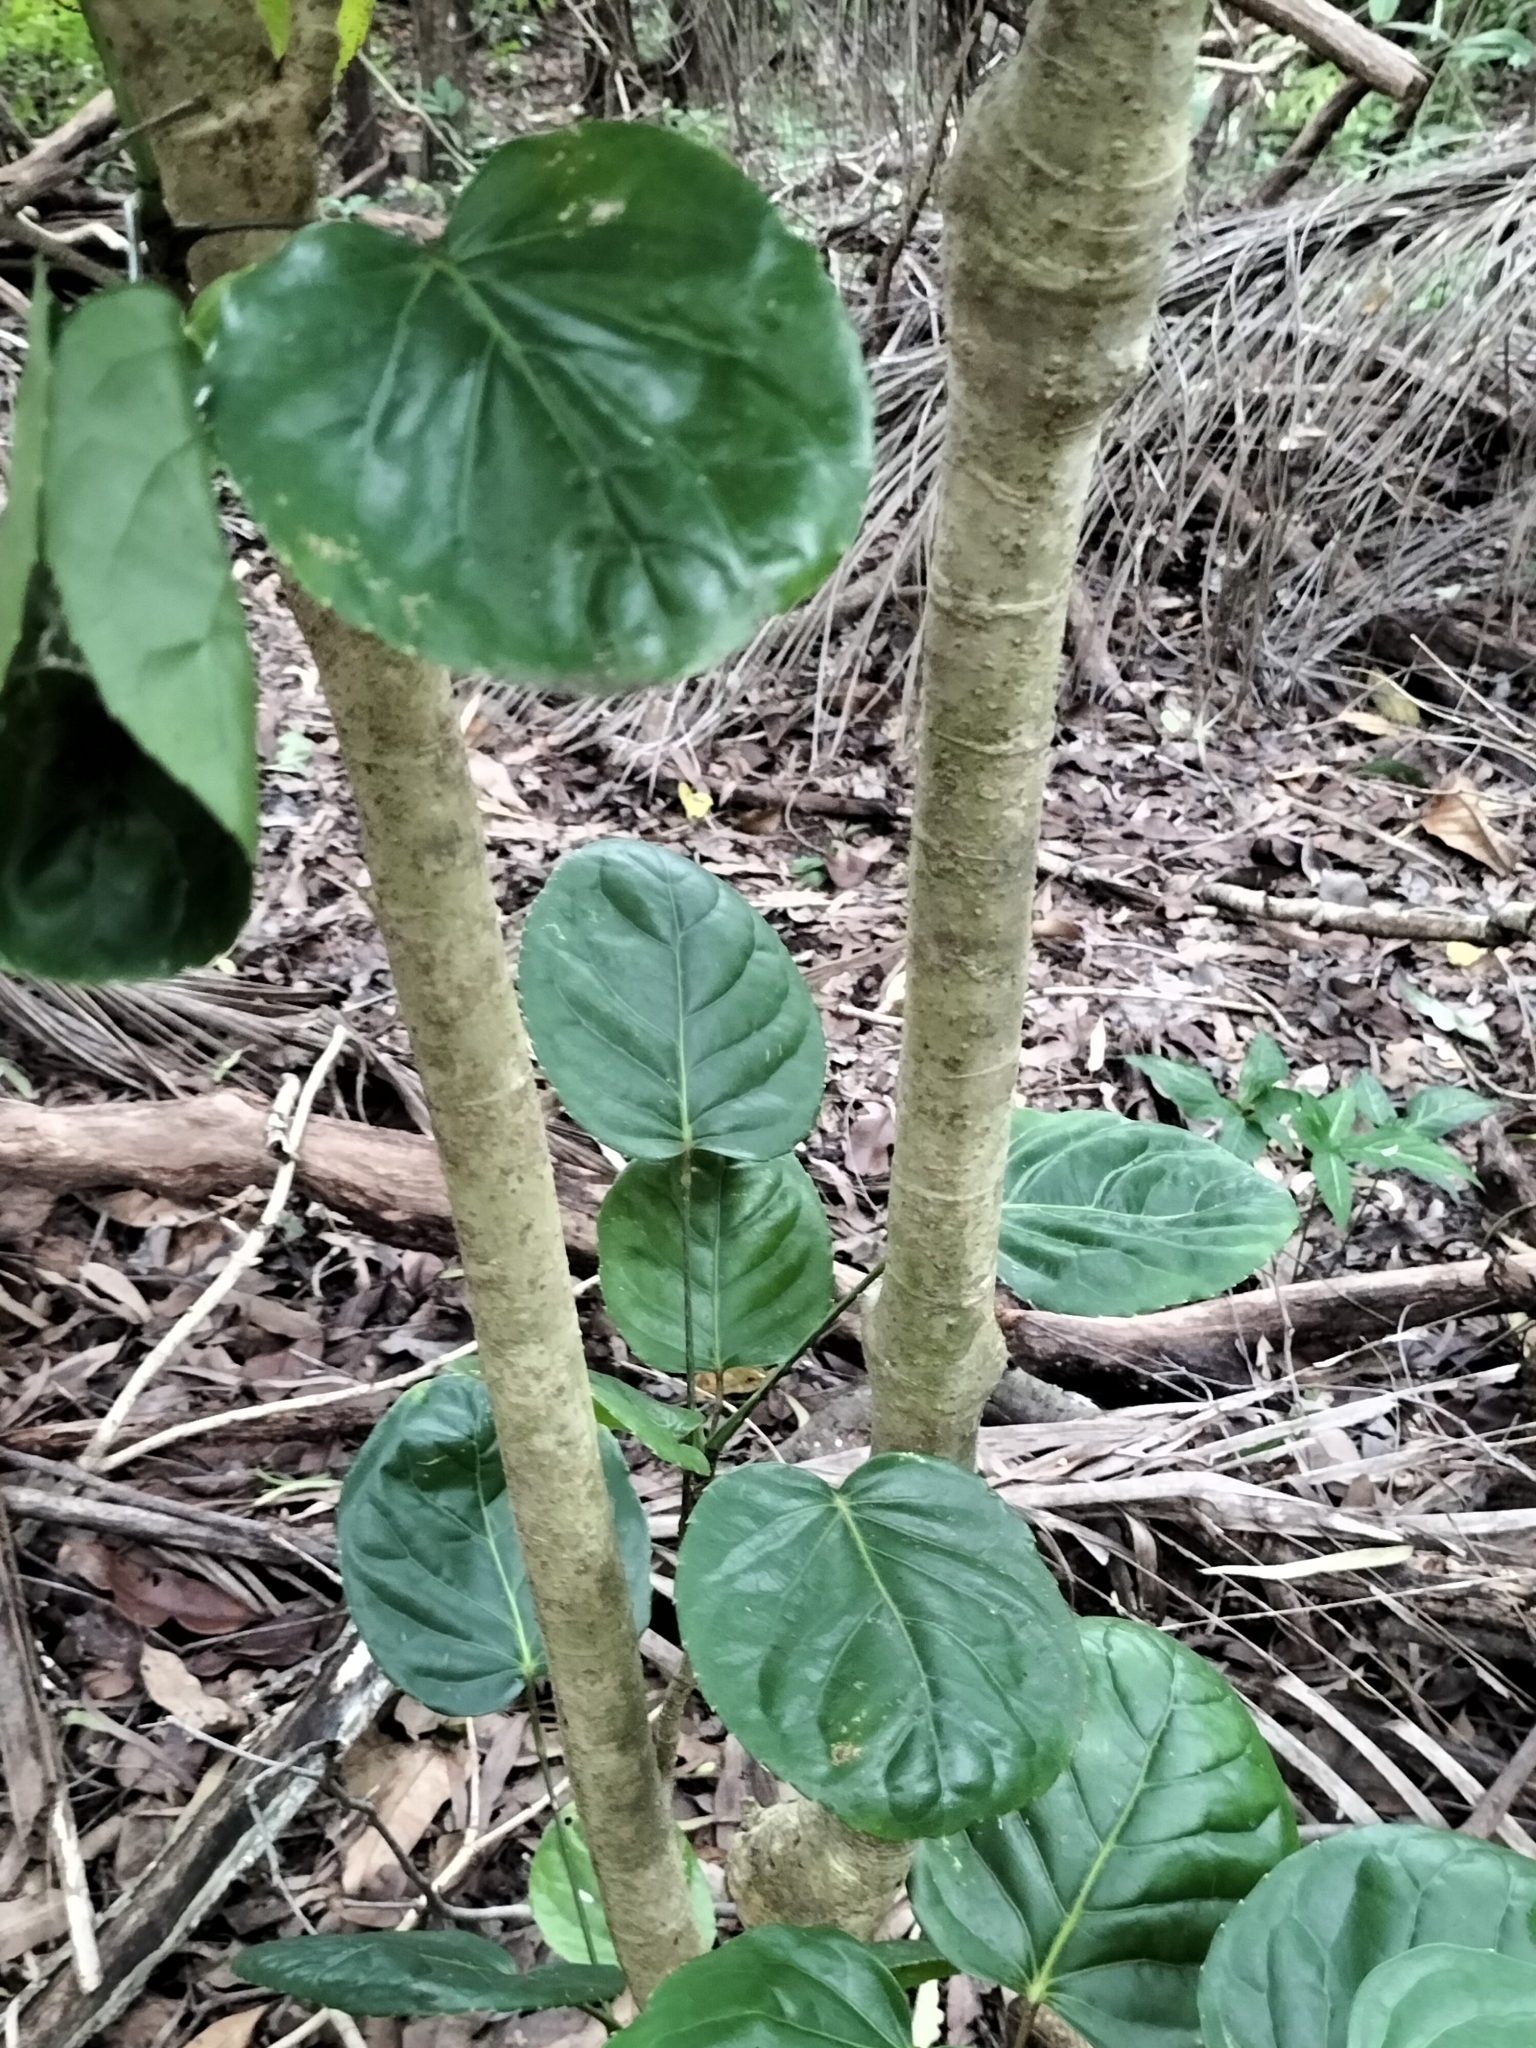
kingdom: Plantae
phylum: Tracheophyta
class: Magnoliopsida
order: Apiales
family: Araliaceae
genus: Polyscias
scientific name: Polyscias scutellaria
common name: Dinnerplate-aralia
